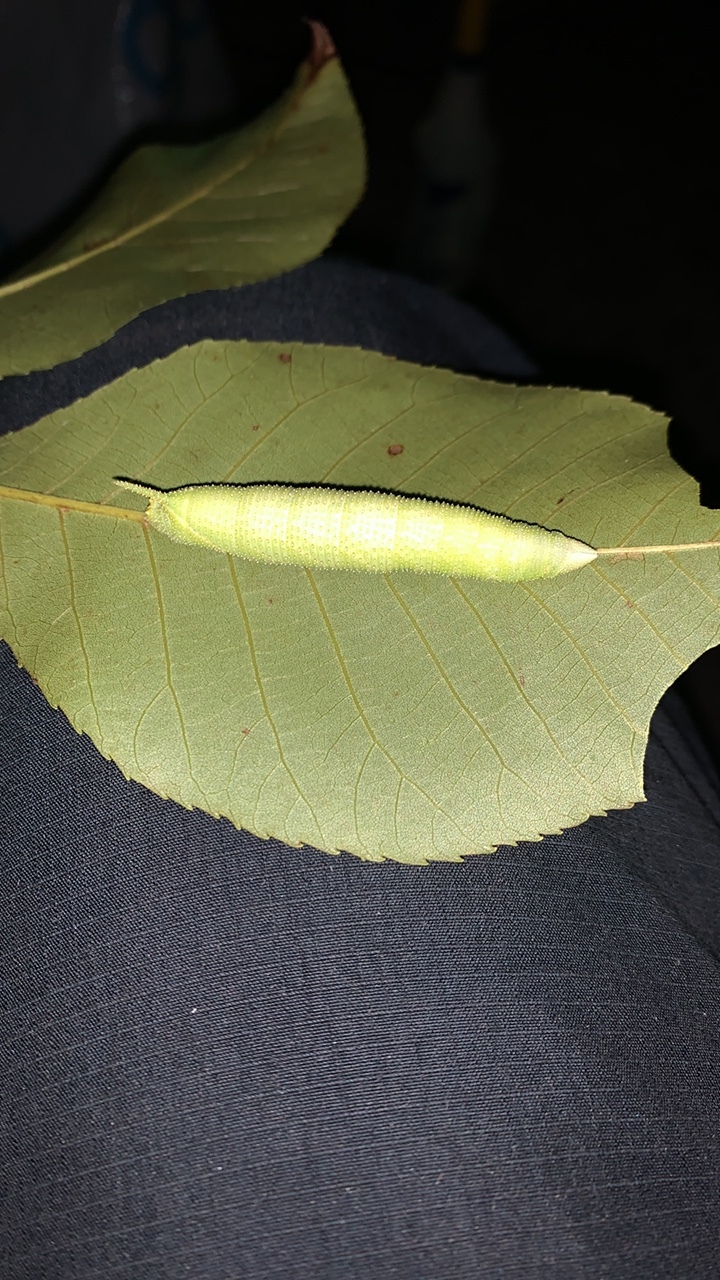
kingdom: Animalia
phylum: Arthropoda
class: Insecta
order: Lepidoptera
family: Sphingidae
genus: Amorpha
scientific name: Amorpha juglandis
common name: Walnut sphinx
